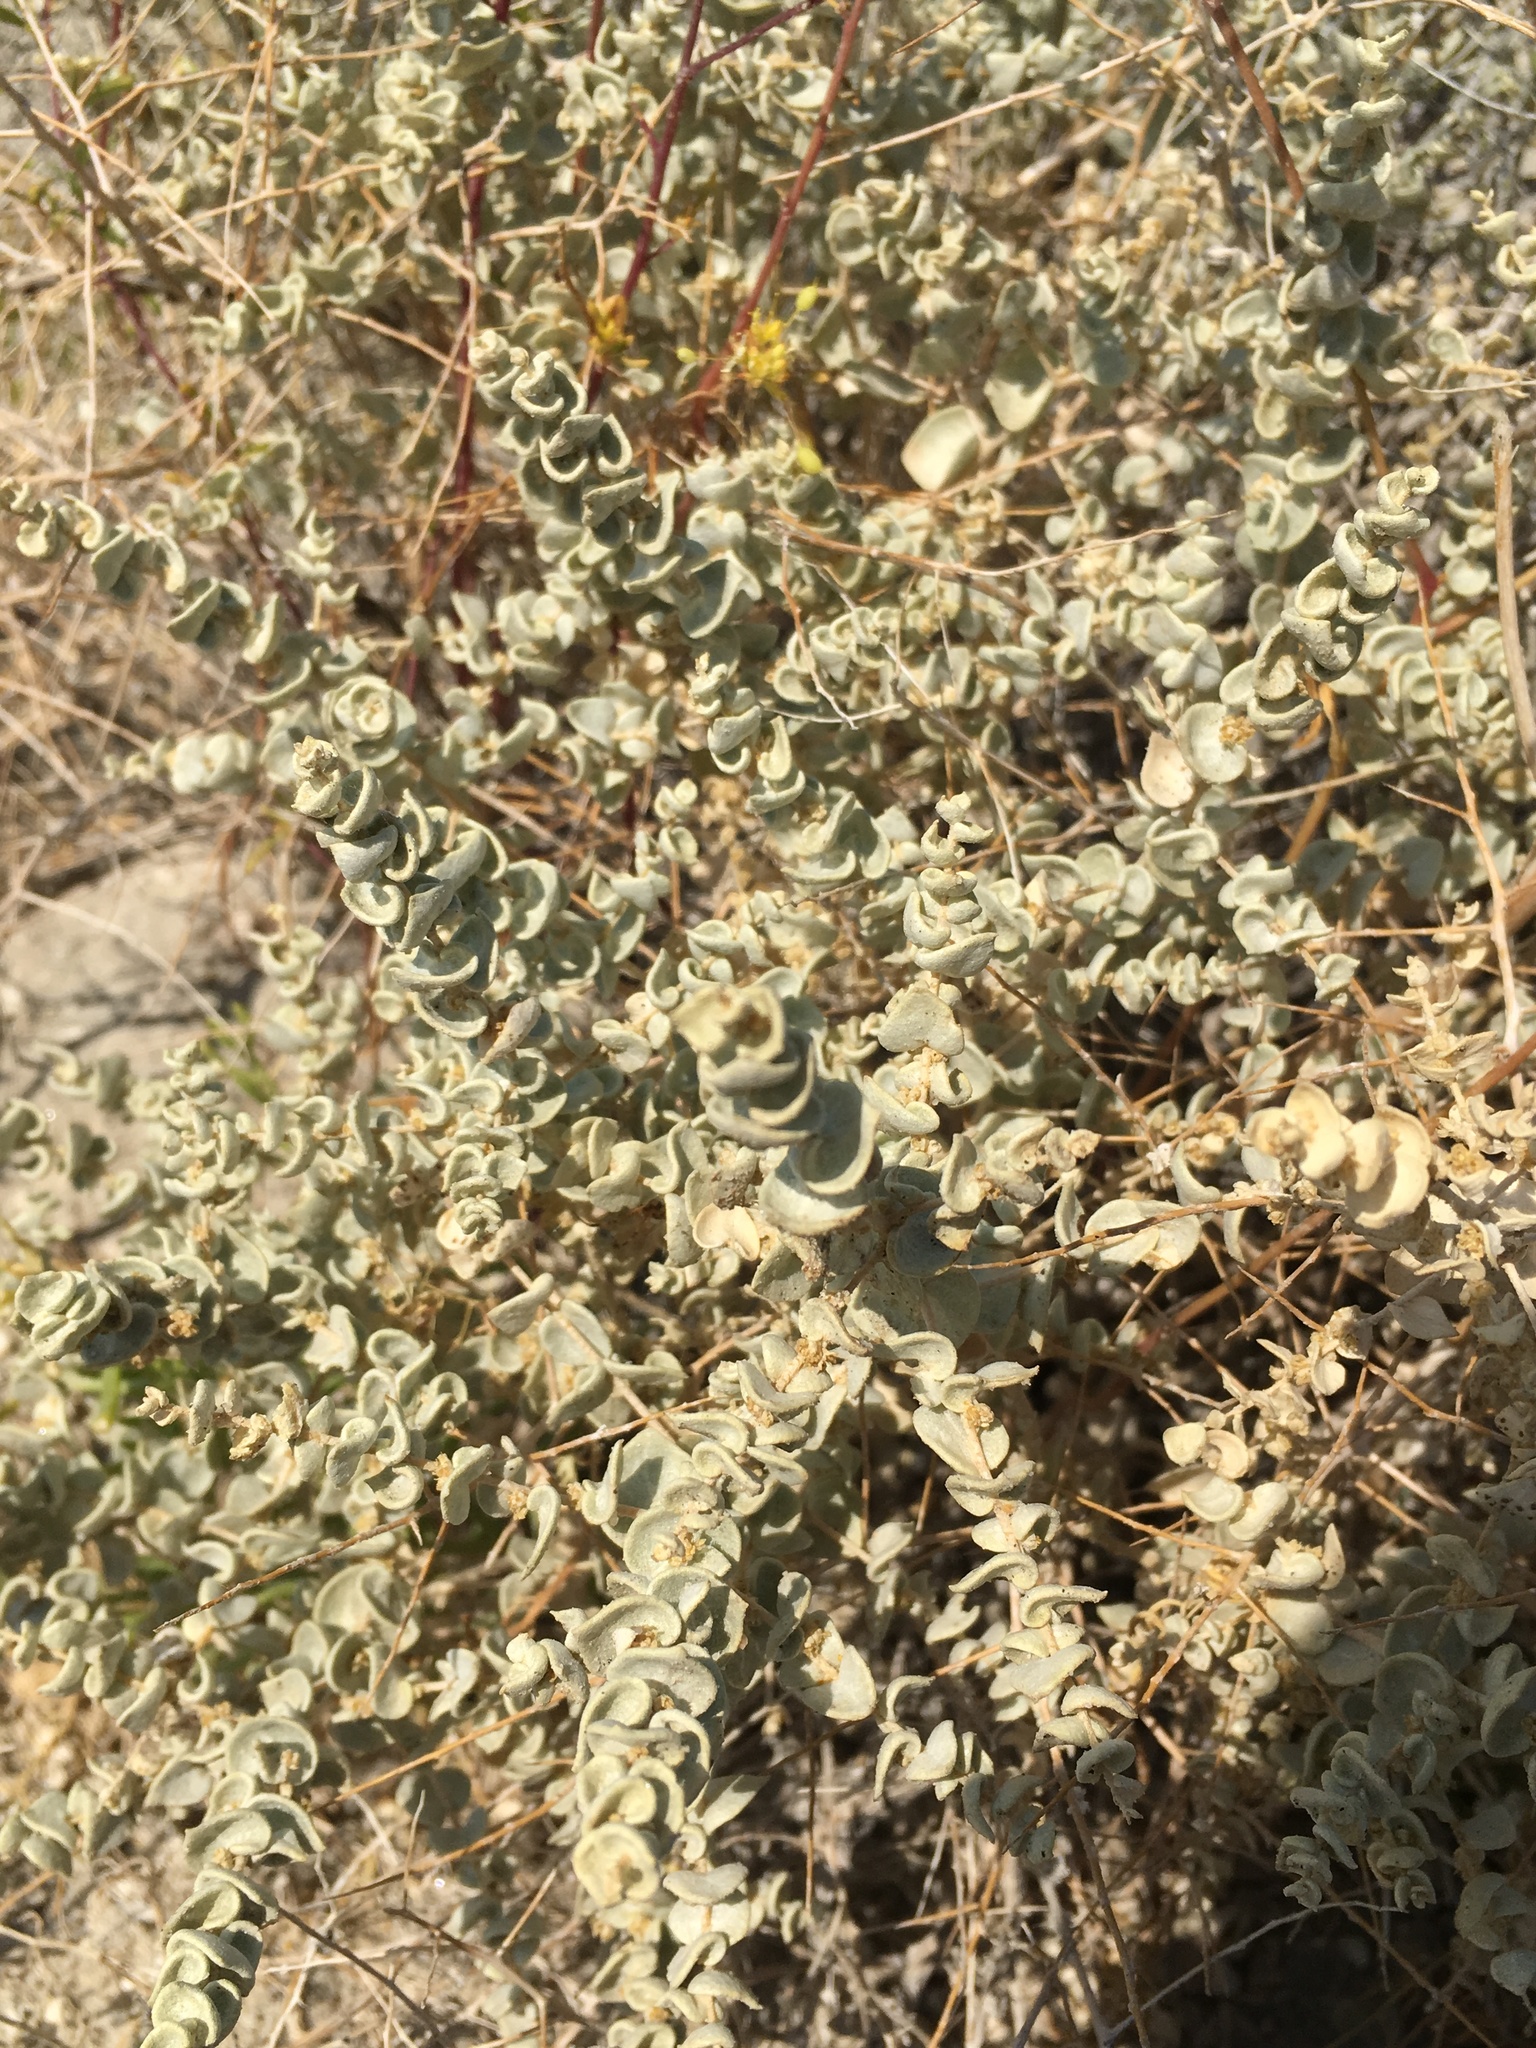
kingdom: Plantae
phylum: Tracheophyta
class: Magnoliopsida
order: Caryophyllales
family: Amaranthaceae
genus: Atriplex
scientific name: Atriplex parryi
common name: Parry's saltbush
